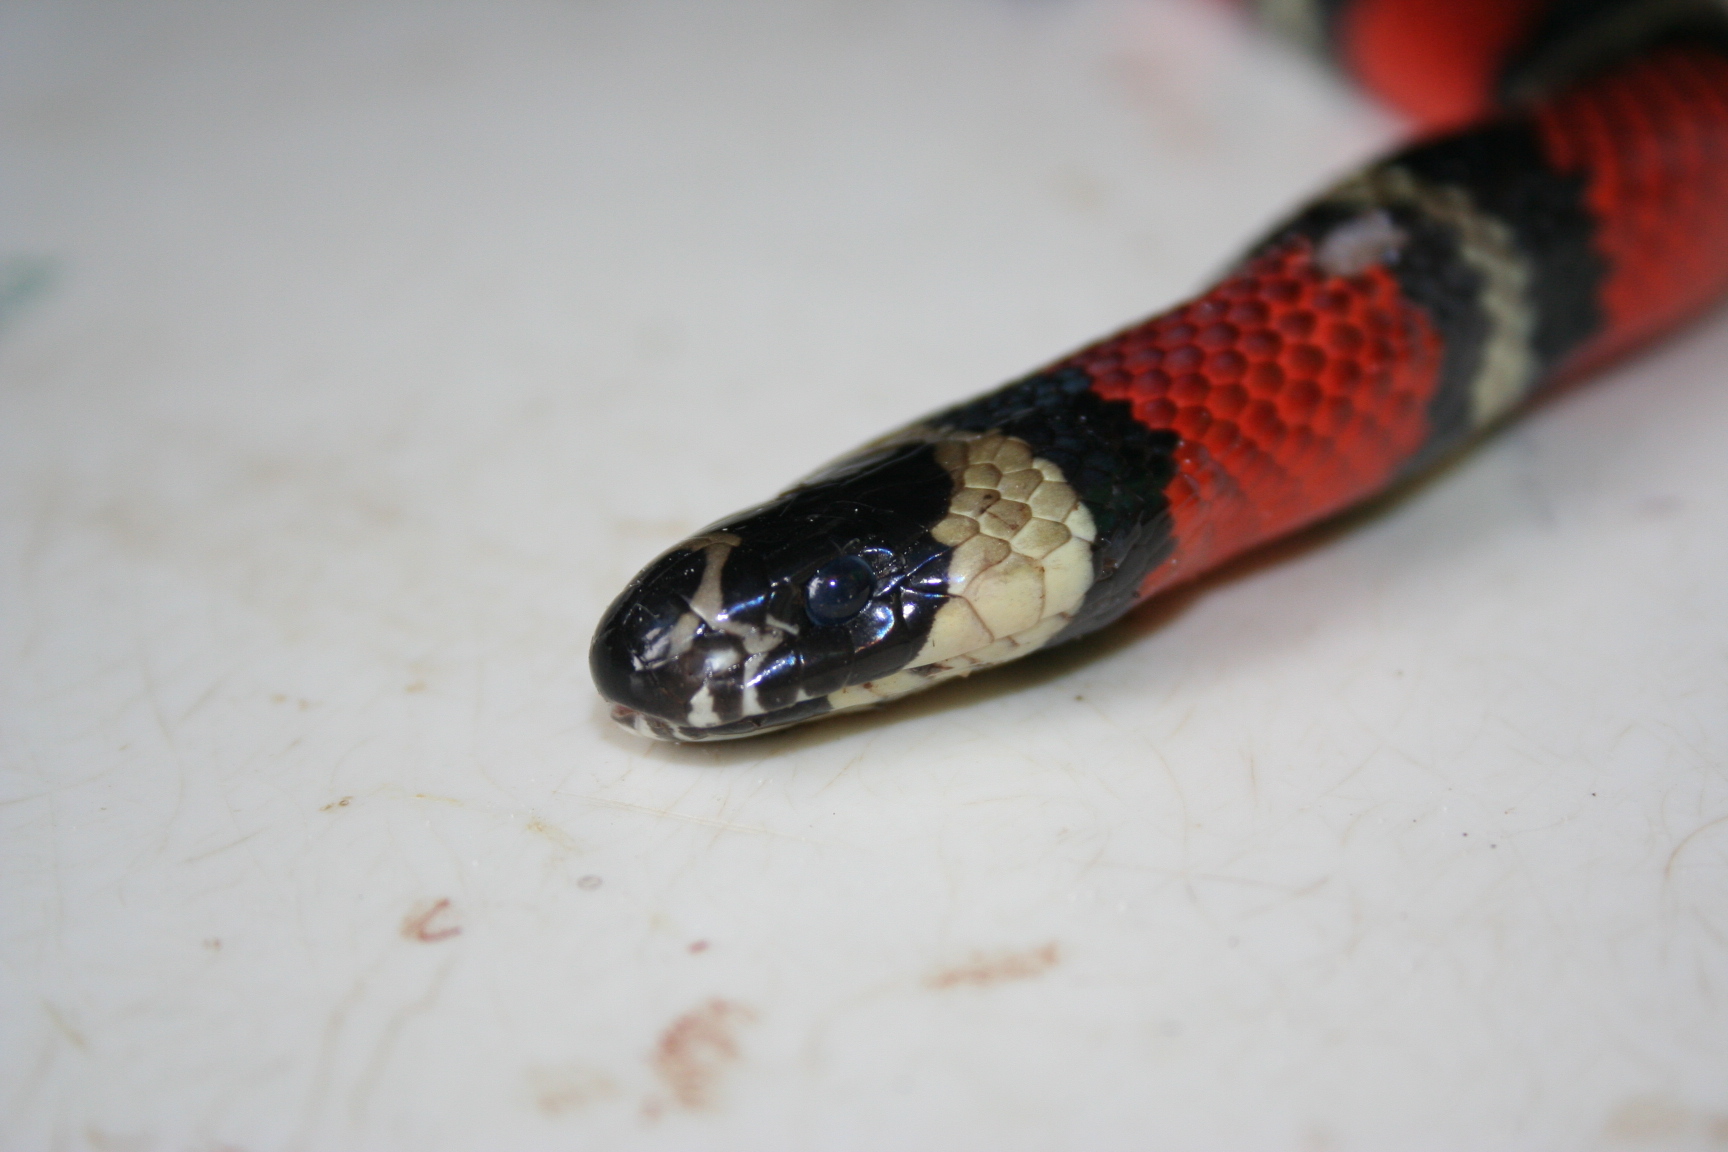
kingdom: Animalia
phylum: Chordata
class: Squamata
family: Colubridae
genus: Lampropeltis
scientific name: Lampropeltis abnorma
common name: Honduran milk snake
